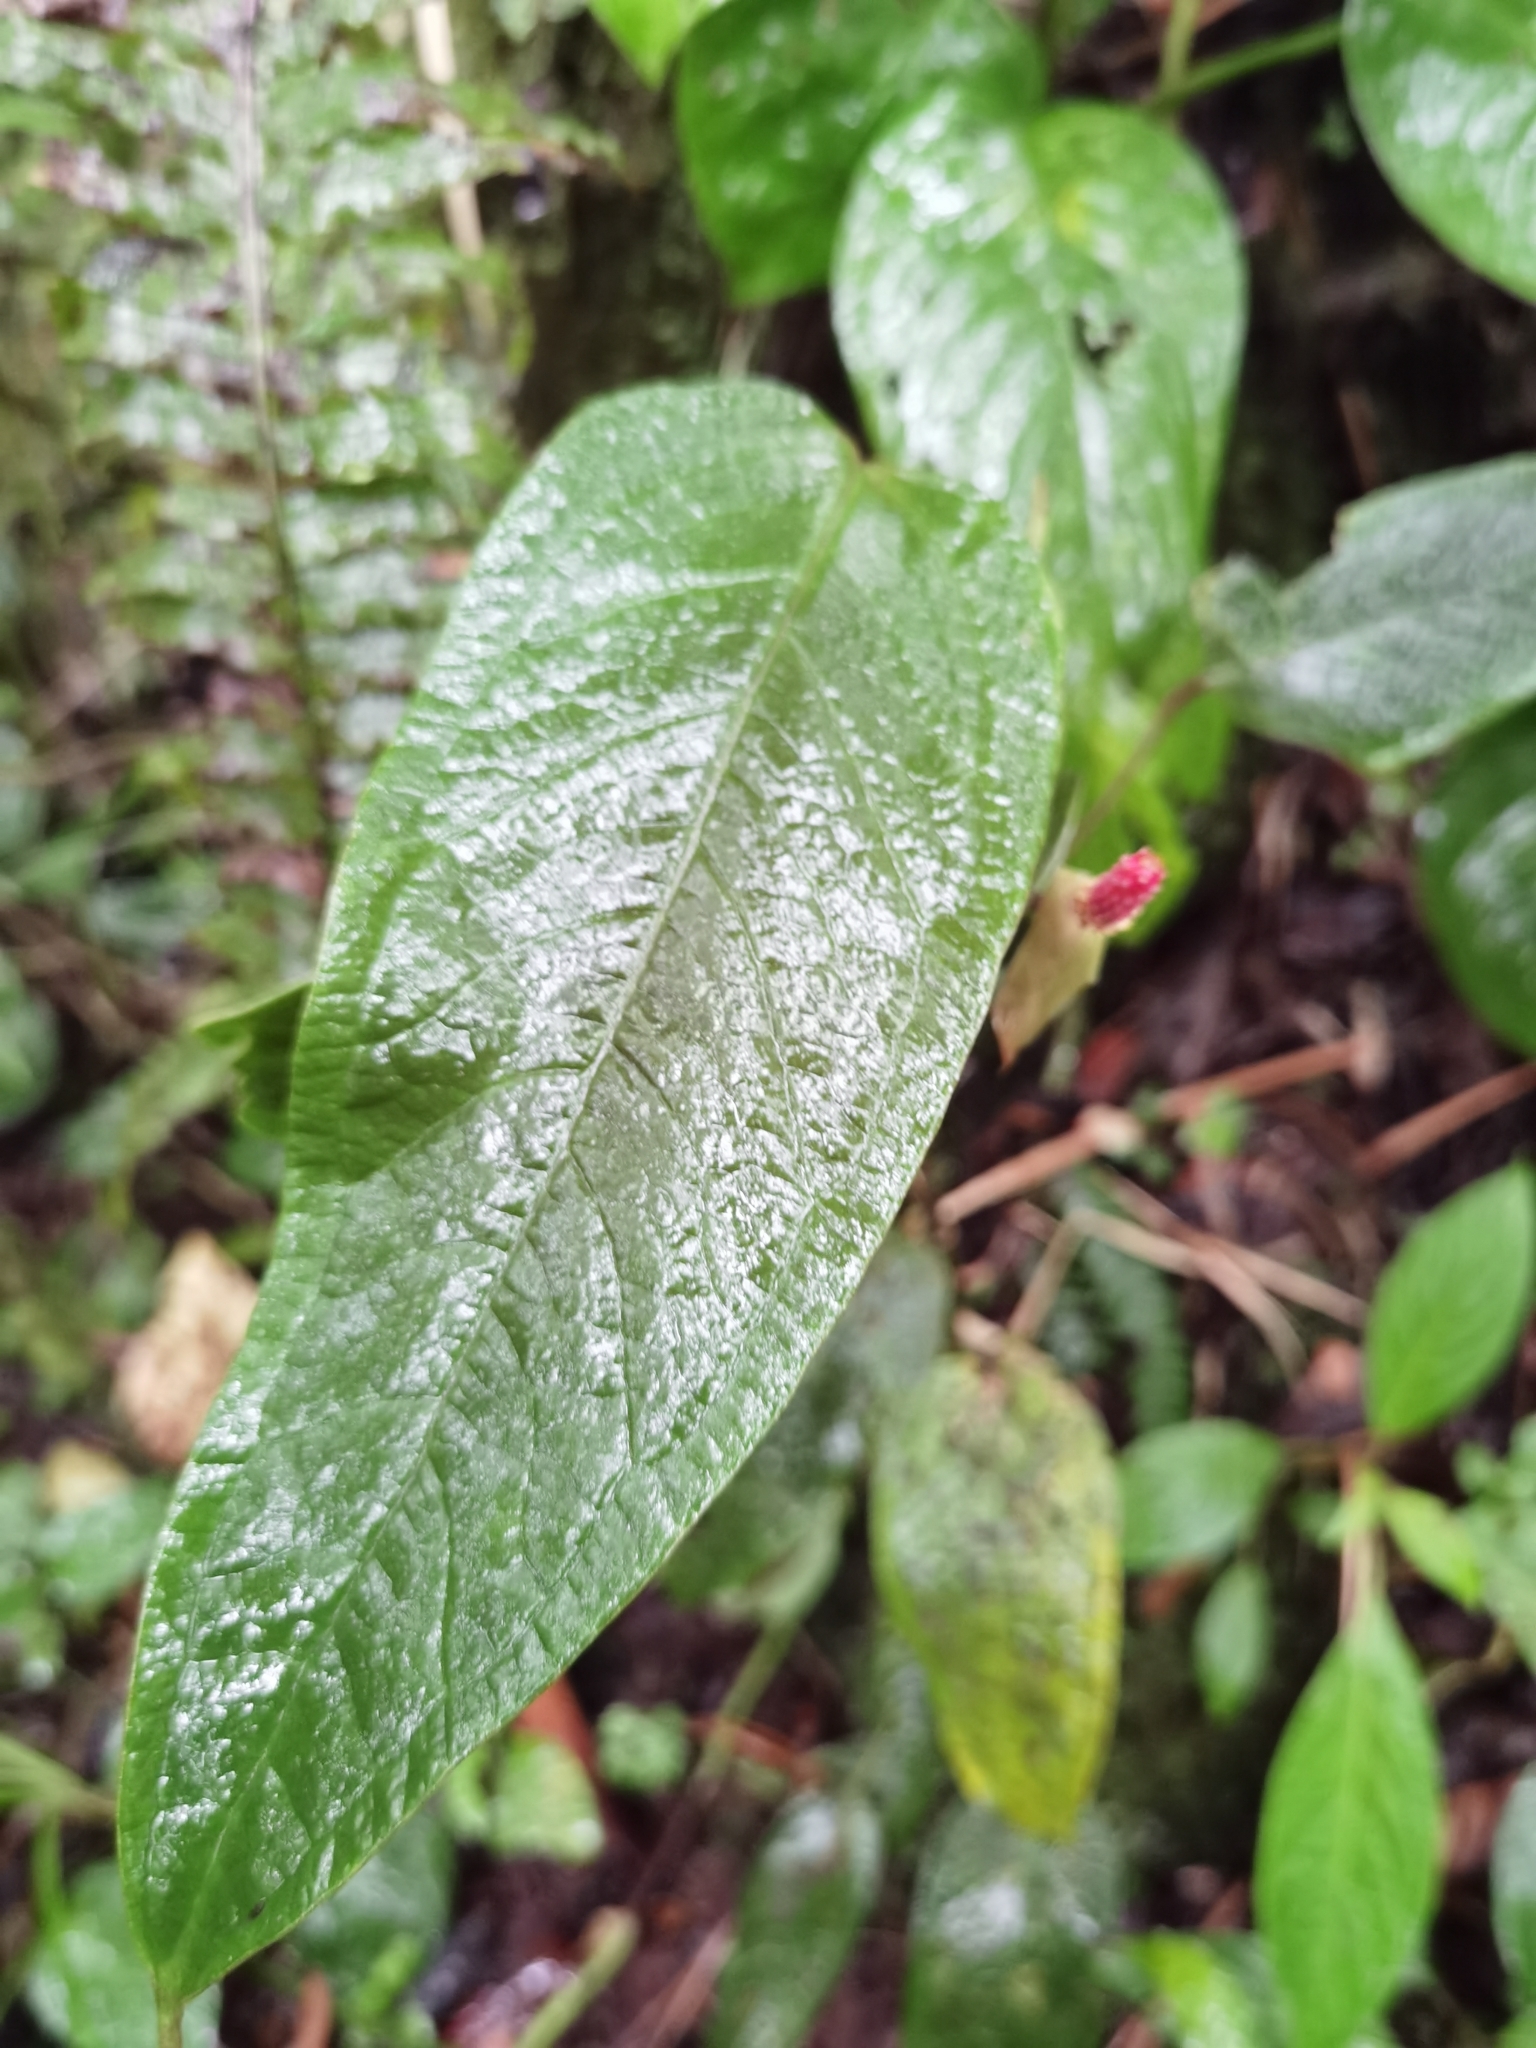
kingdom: Plantae
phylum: Tracheophyta
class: Liliopsida
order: Alismatales
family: Araceae
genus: Anthurium
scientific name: Anthurium microspadix
